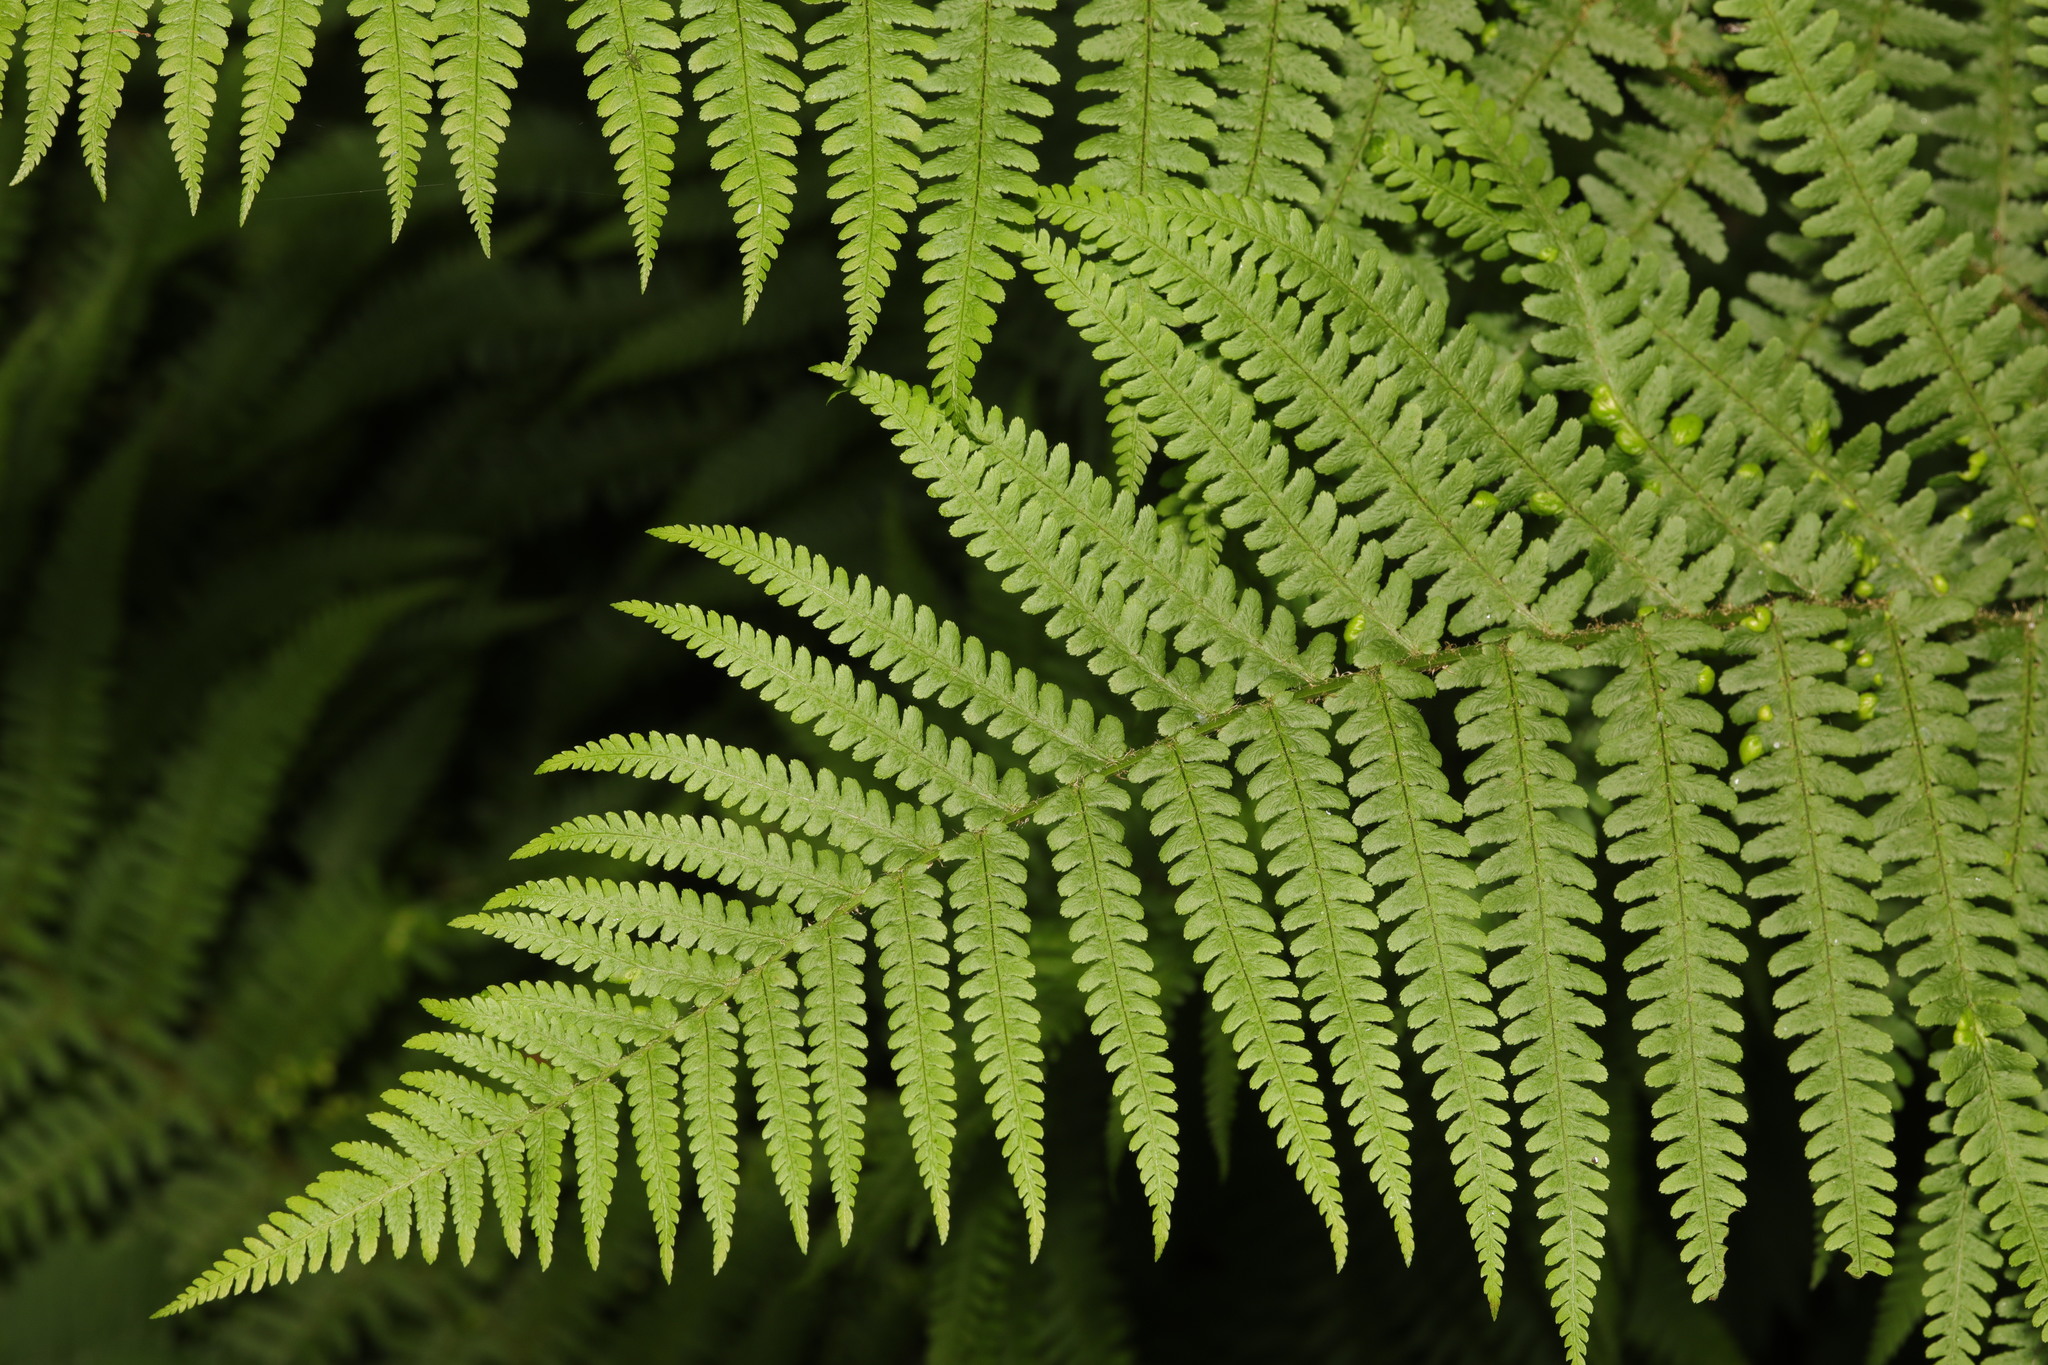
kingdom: Plantae
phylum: Tracheophyta
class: Polypodiopsida
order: Polypodiales
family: Dryopteridaceae
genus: Dryopteris
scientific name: Dryopteris filix-mas
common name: Male fern
